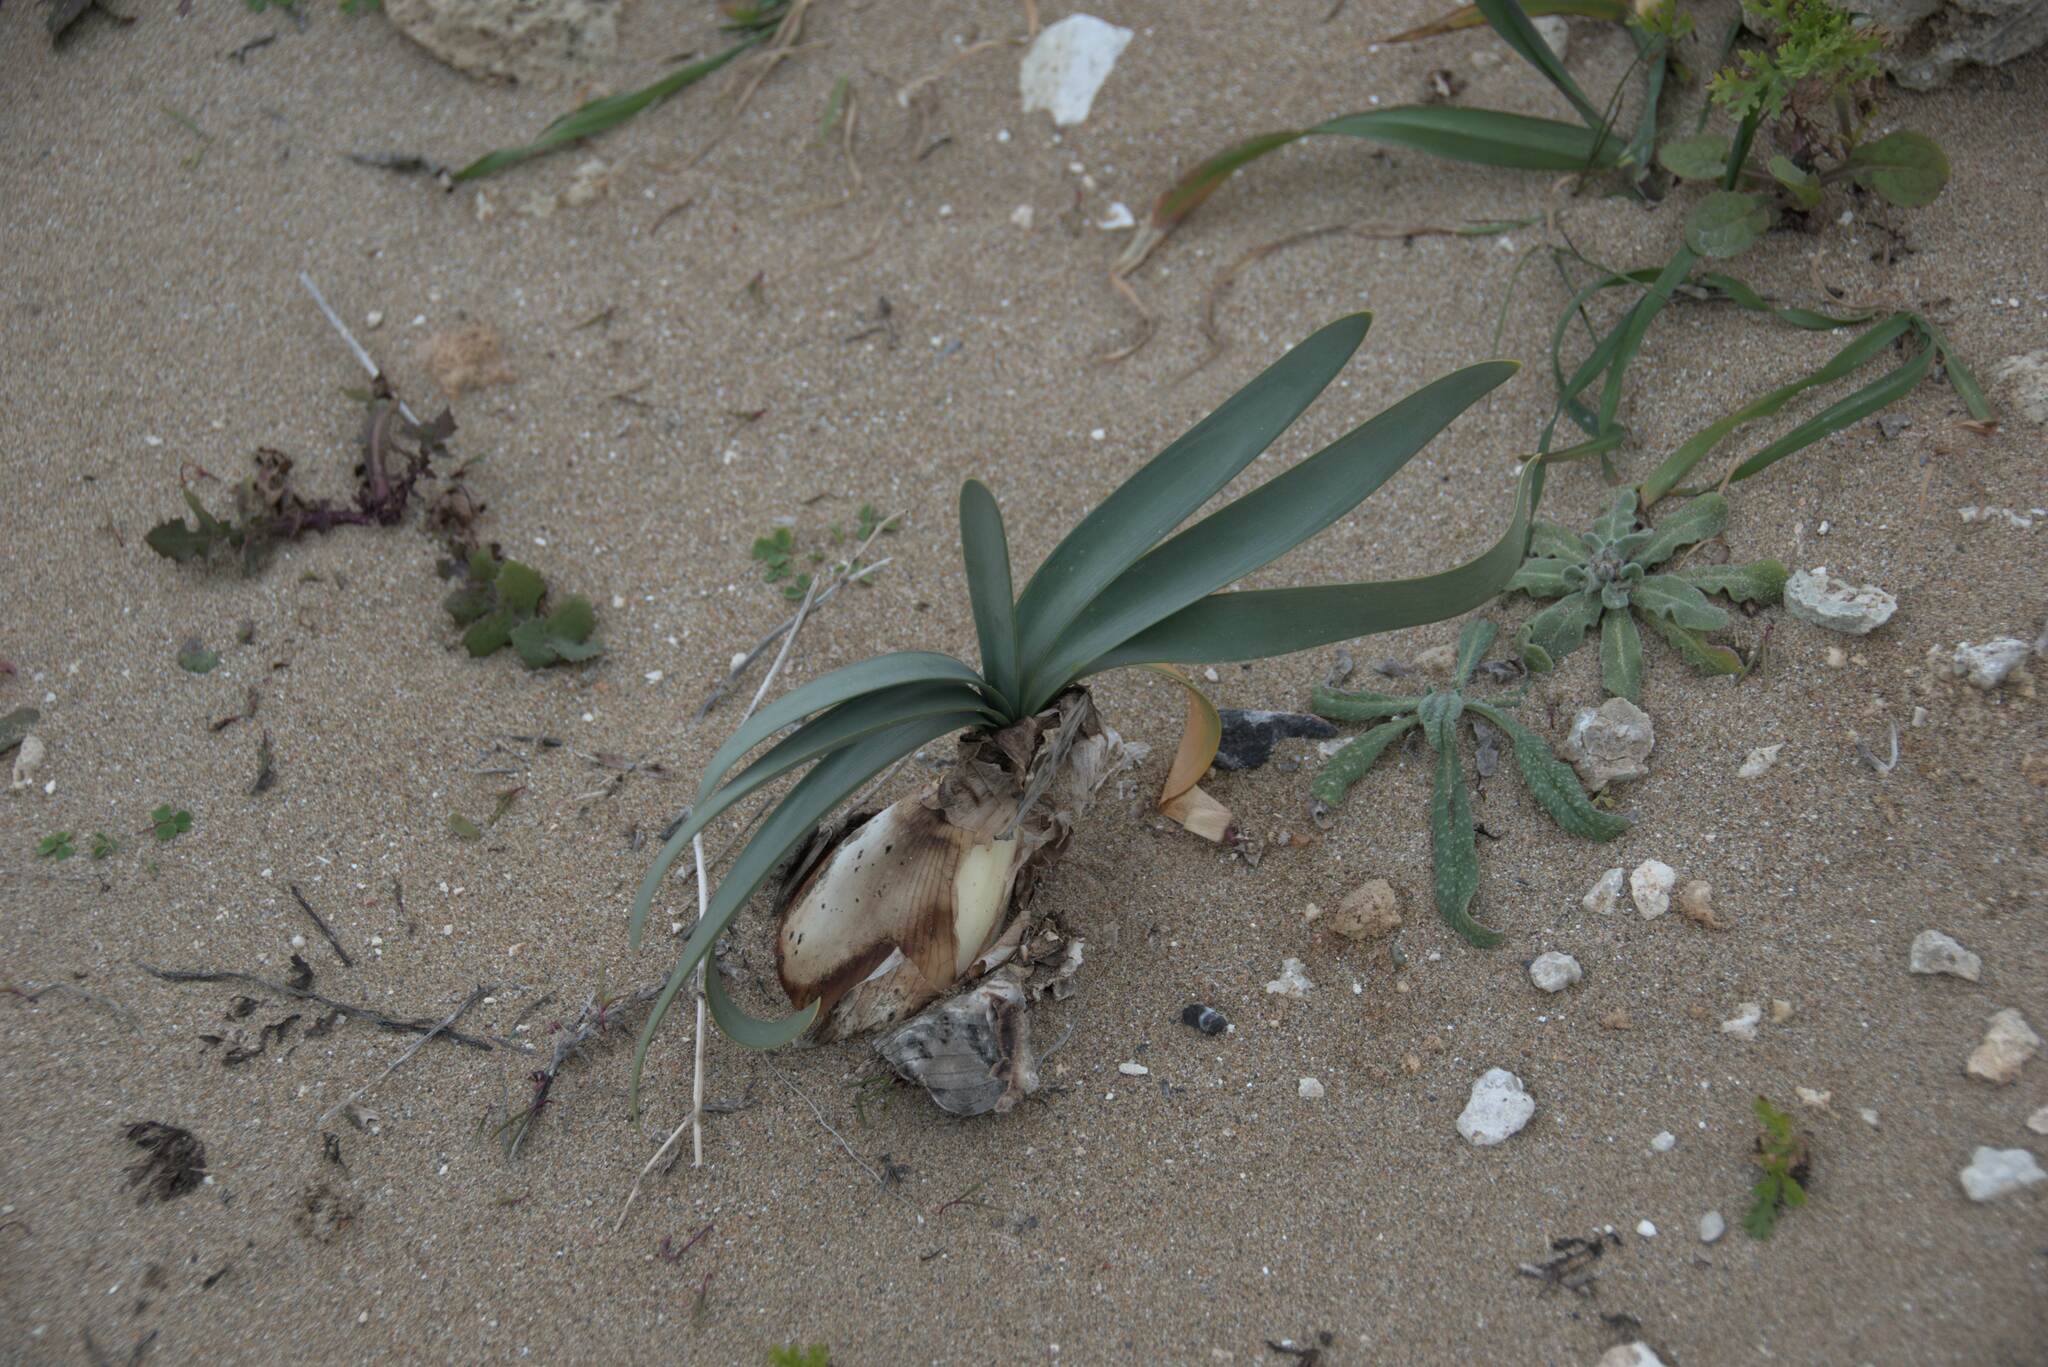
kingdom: Plantae
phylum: Tracheophyta
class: Liliopsida
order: Asparagales
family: Amaryllidaceae
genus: Pancratium
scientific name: Pancratium maritimum
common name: Sea-daffodil
